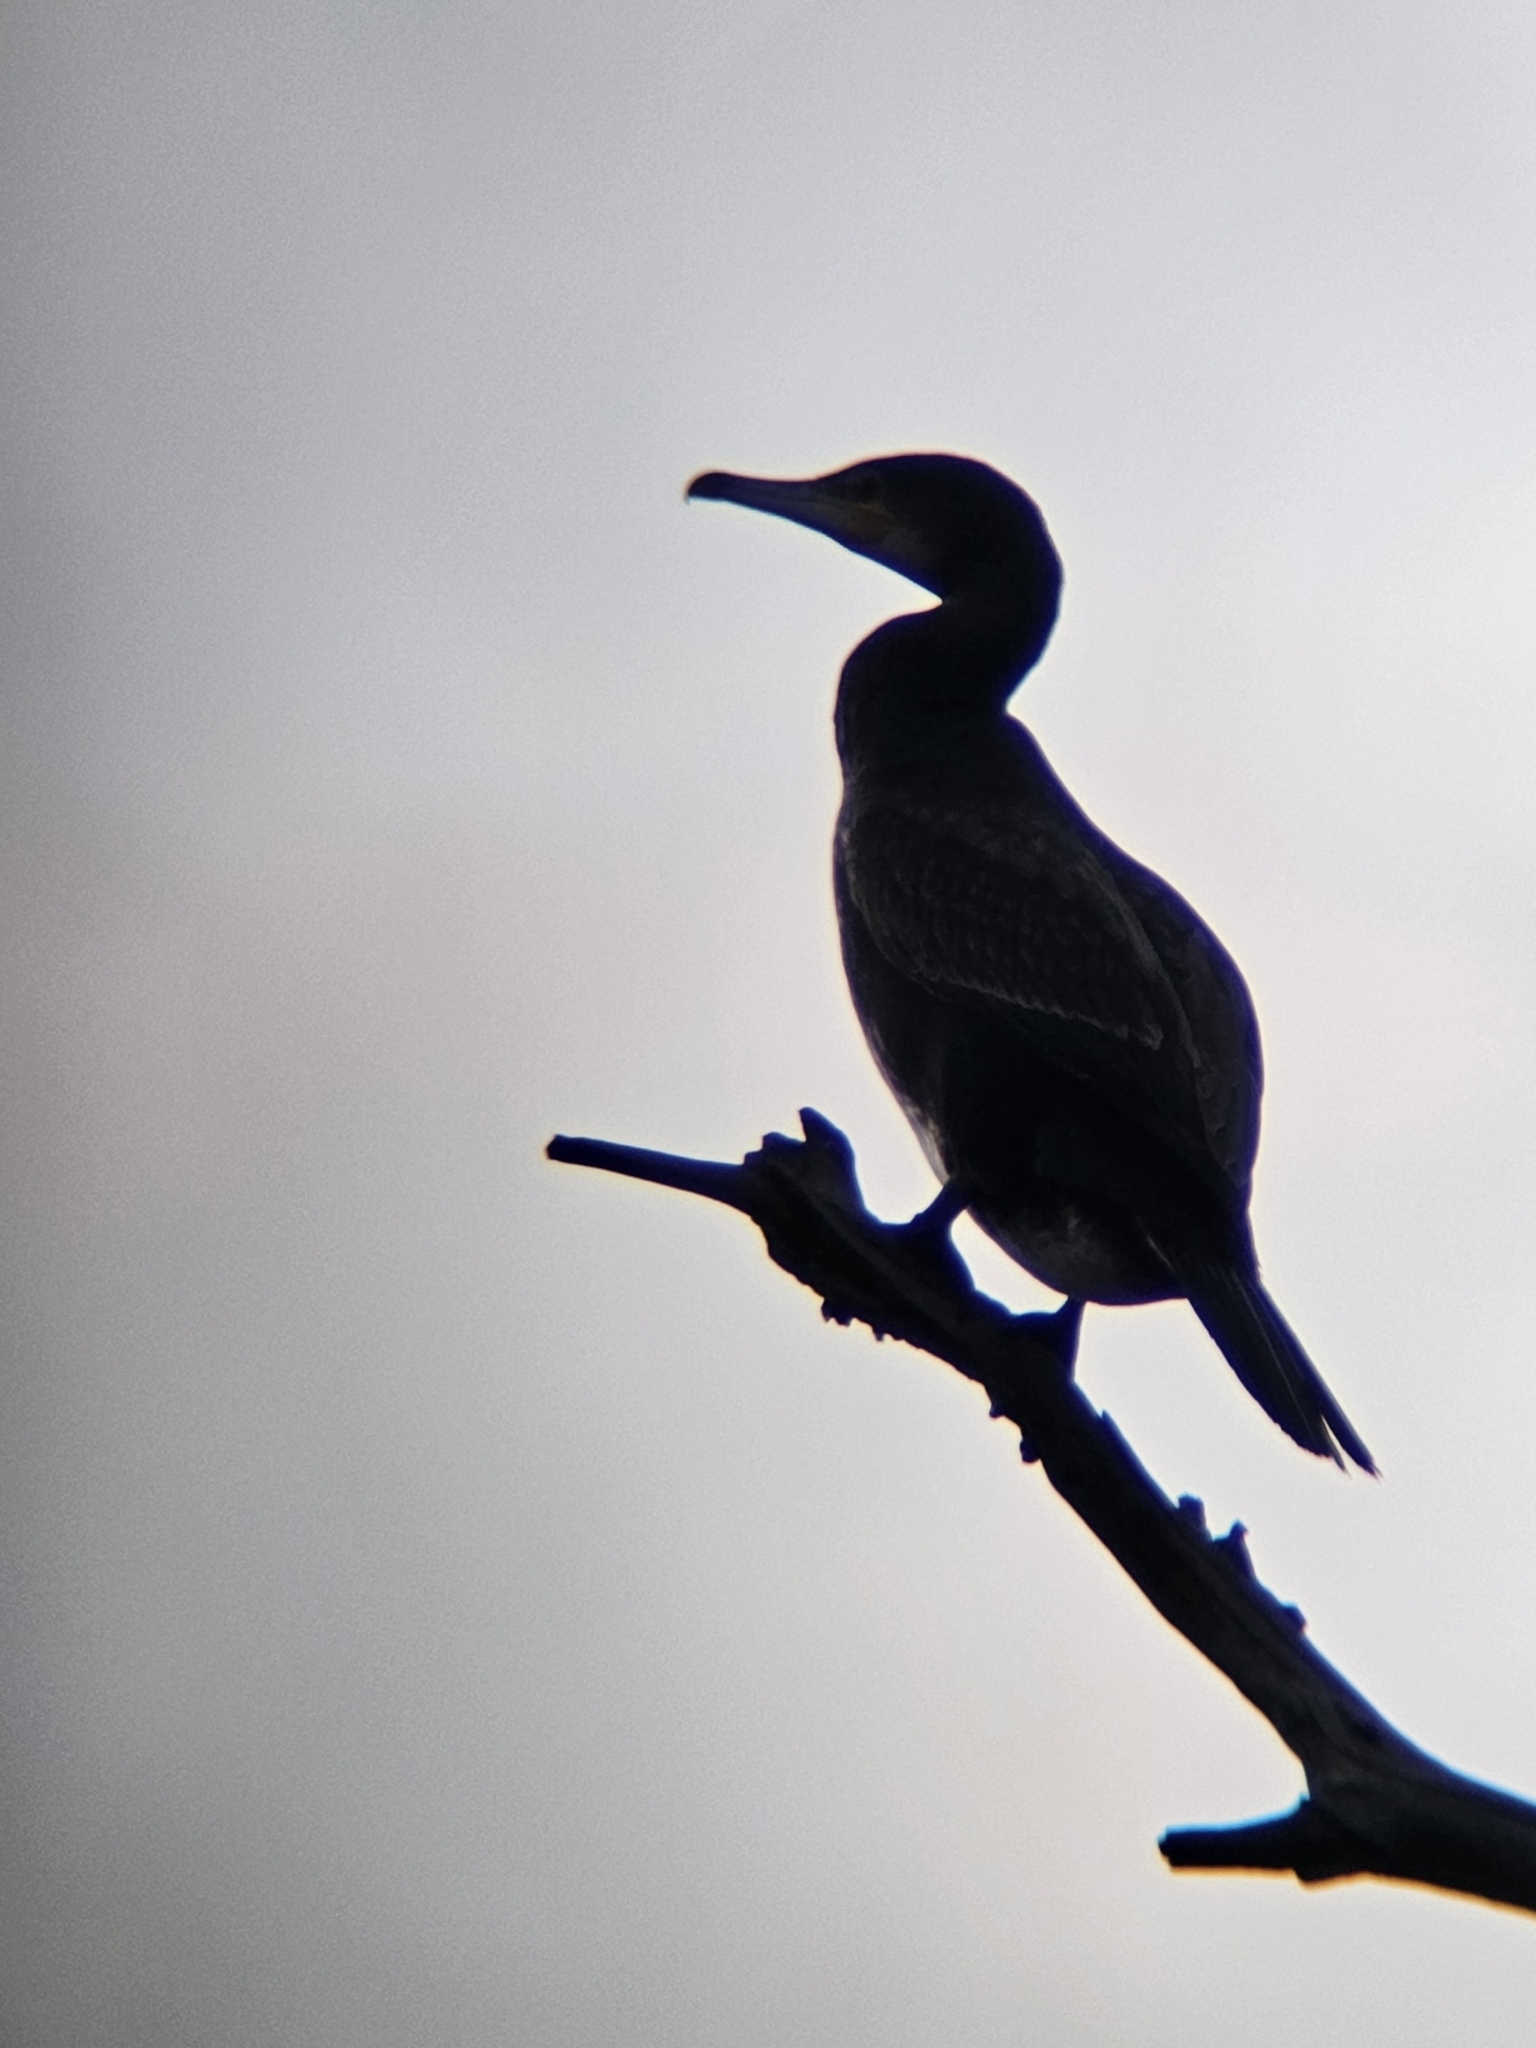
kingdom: Animalia
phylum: Chordata
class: Aves
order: Suliformes
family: Phalacrocoracidae
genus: Phalacrocorax
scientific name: Phalacrocorax carbo
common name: Great cormorant
